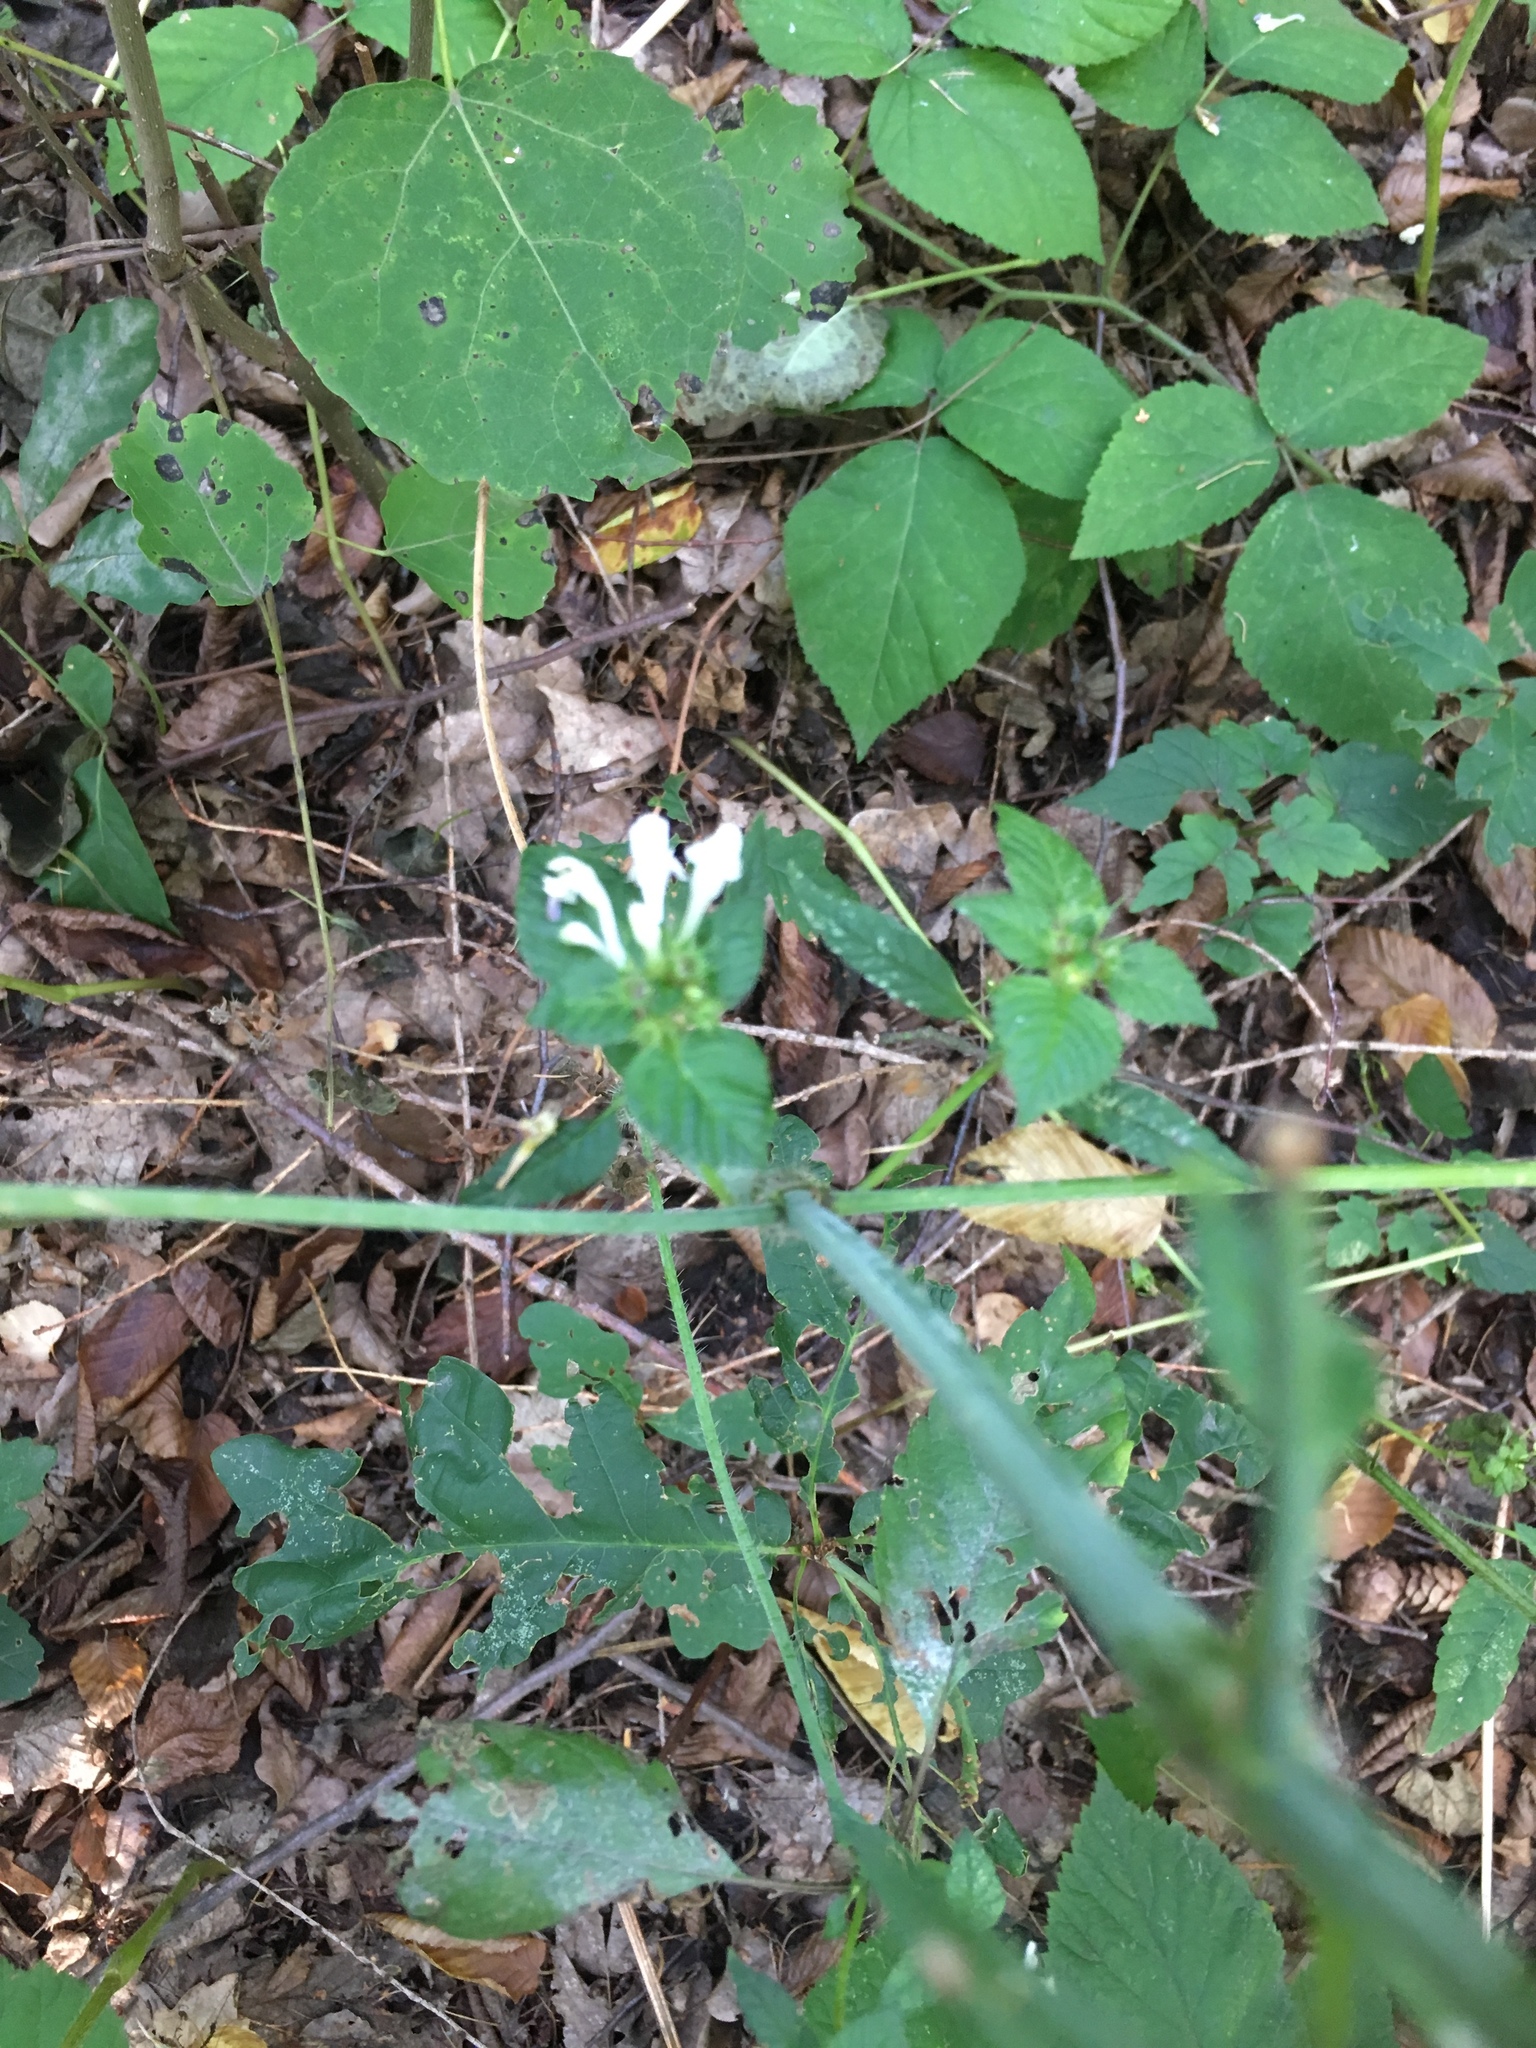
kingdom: Plantae
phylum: Tracheophyta
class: Magnoliopsida
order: Lamiales
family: Lamiaceae
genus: Galeopsis
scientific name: Galeopsis tetrahit
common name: Common hemp-nettle
